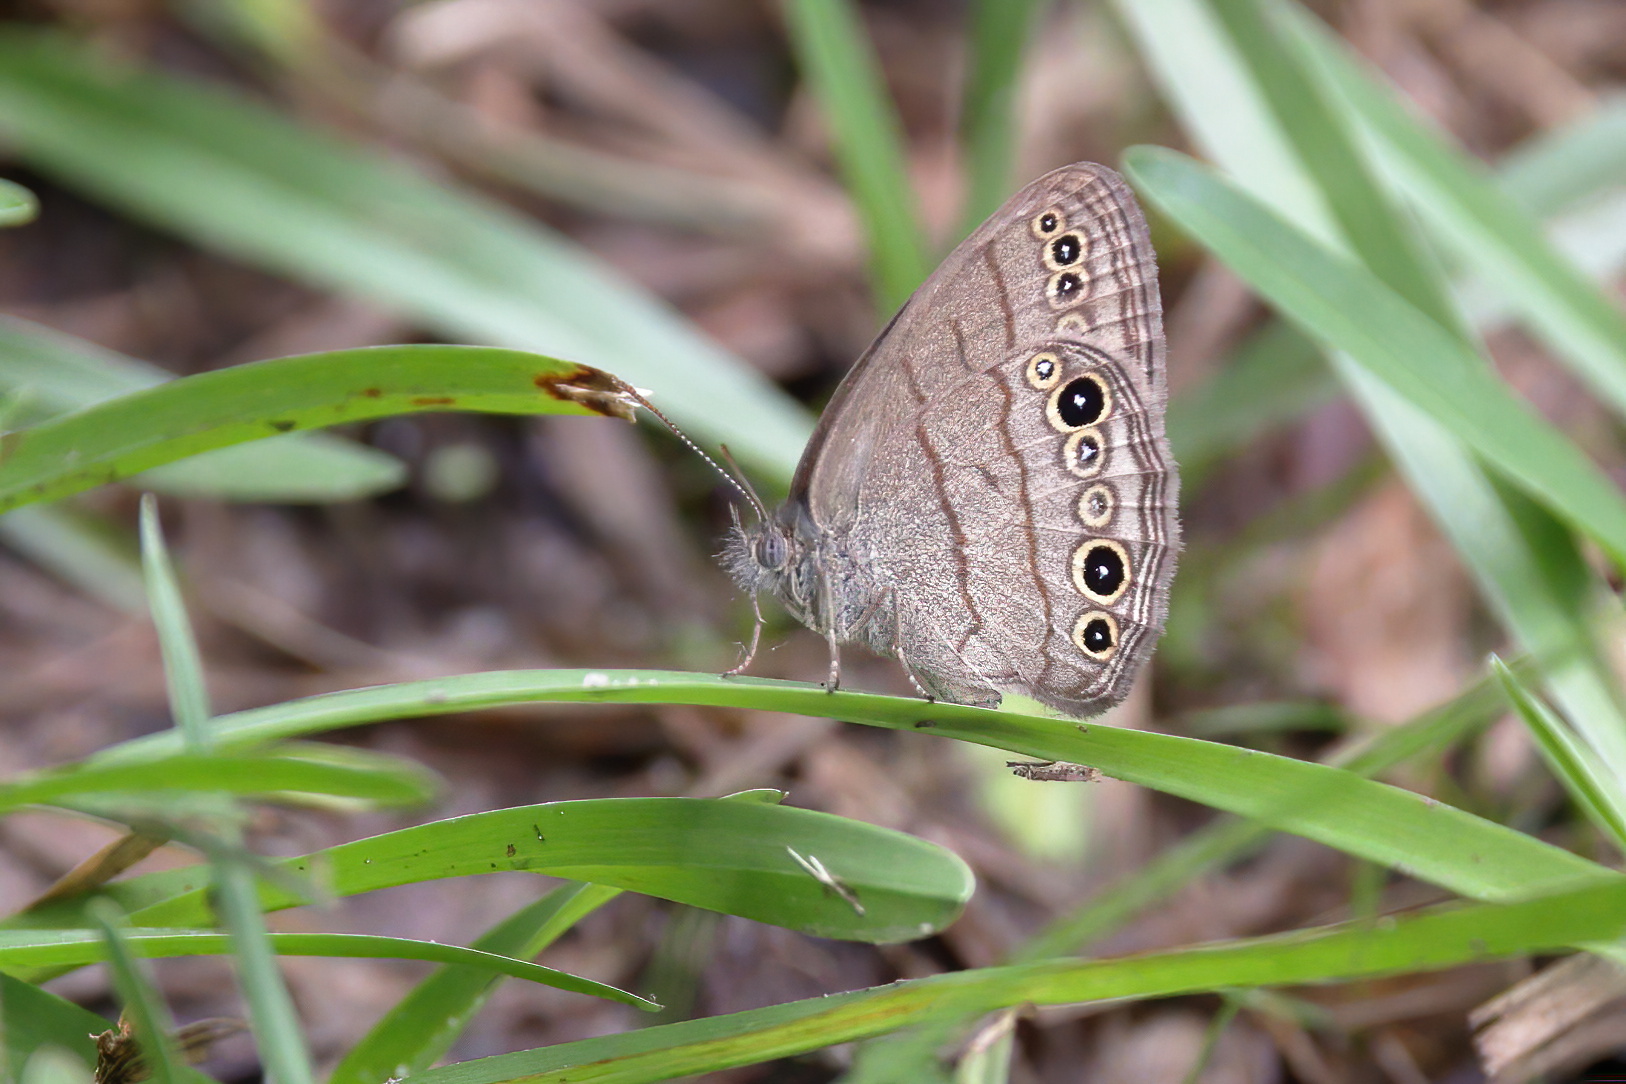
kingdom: Animalia
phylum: Arthropoda
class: Insecta
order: Lepidoptera
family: Nymphalidae
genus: Hermeuptychia
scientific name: Hermeuptychia hermes
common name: Hermes satyr
